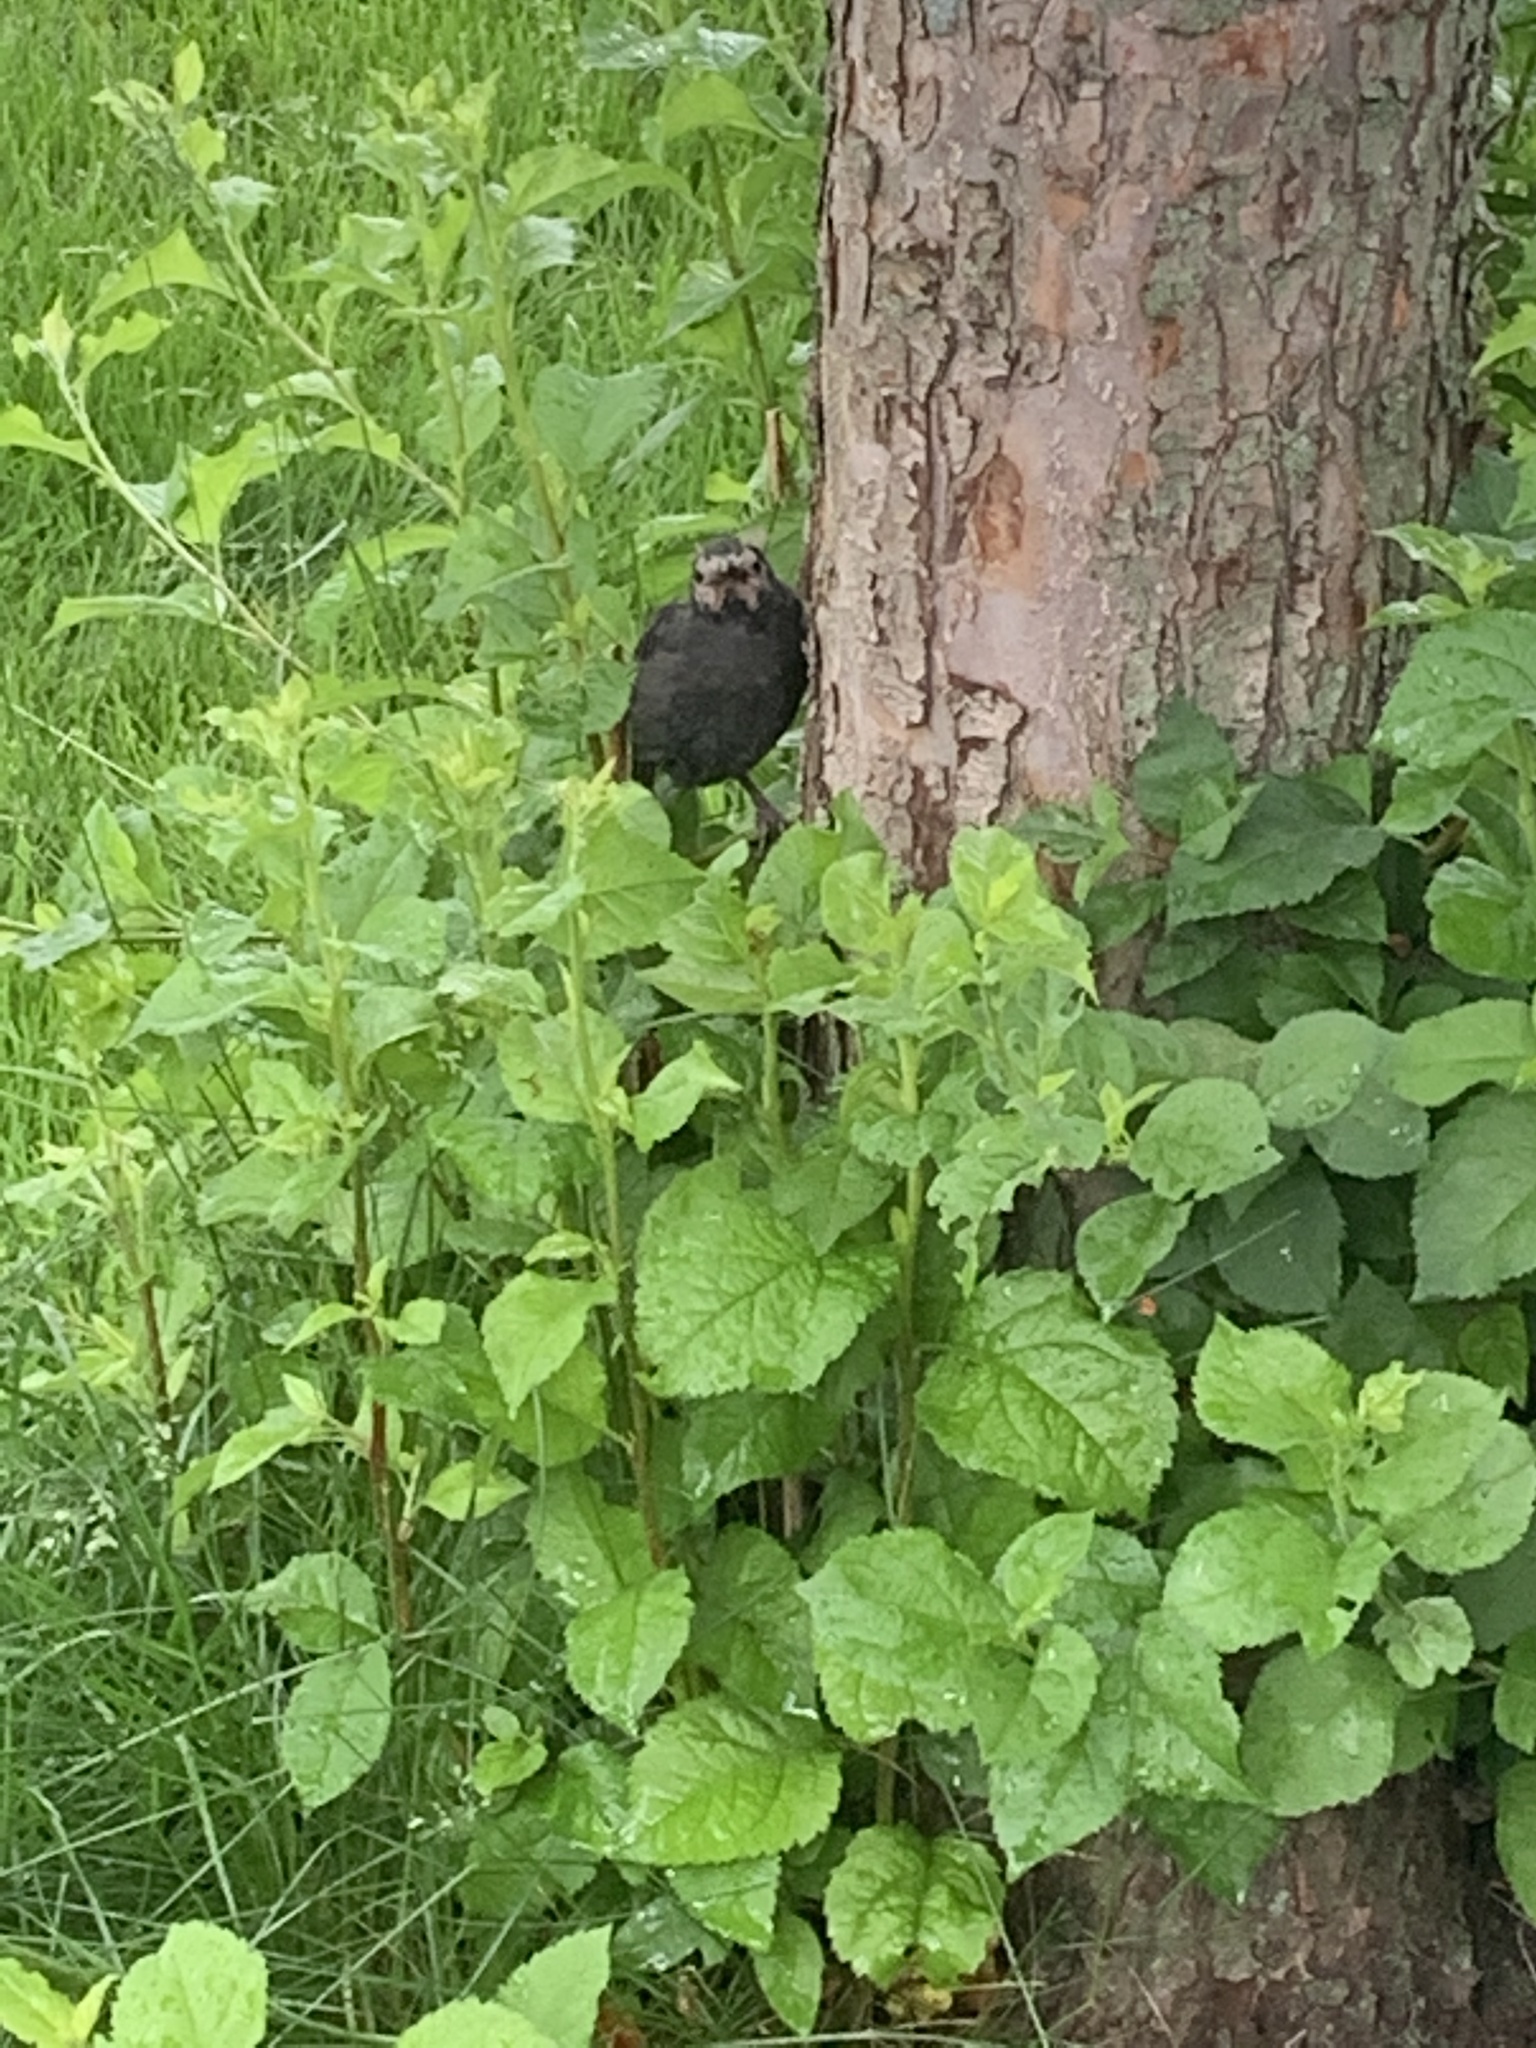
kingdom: Animalia
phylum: Chordata
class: Aves
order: Passeriformes
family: Icteridae
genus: Quiscalus
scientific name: Quiscalus quiscula
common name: Common grackle
